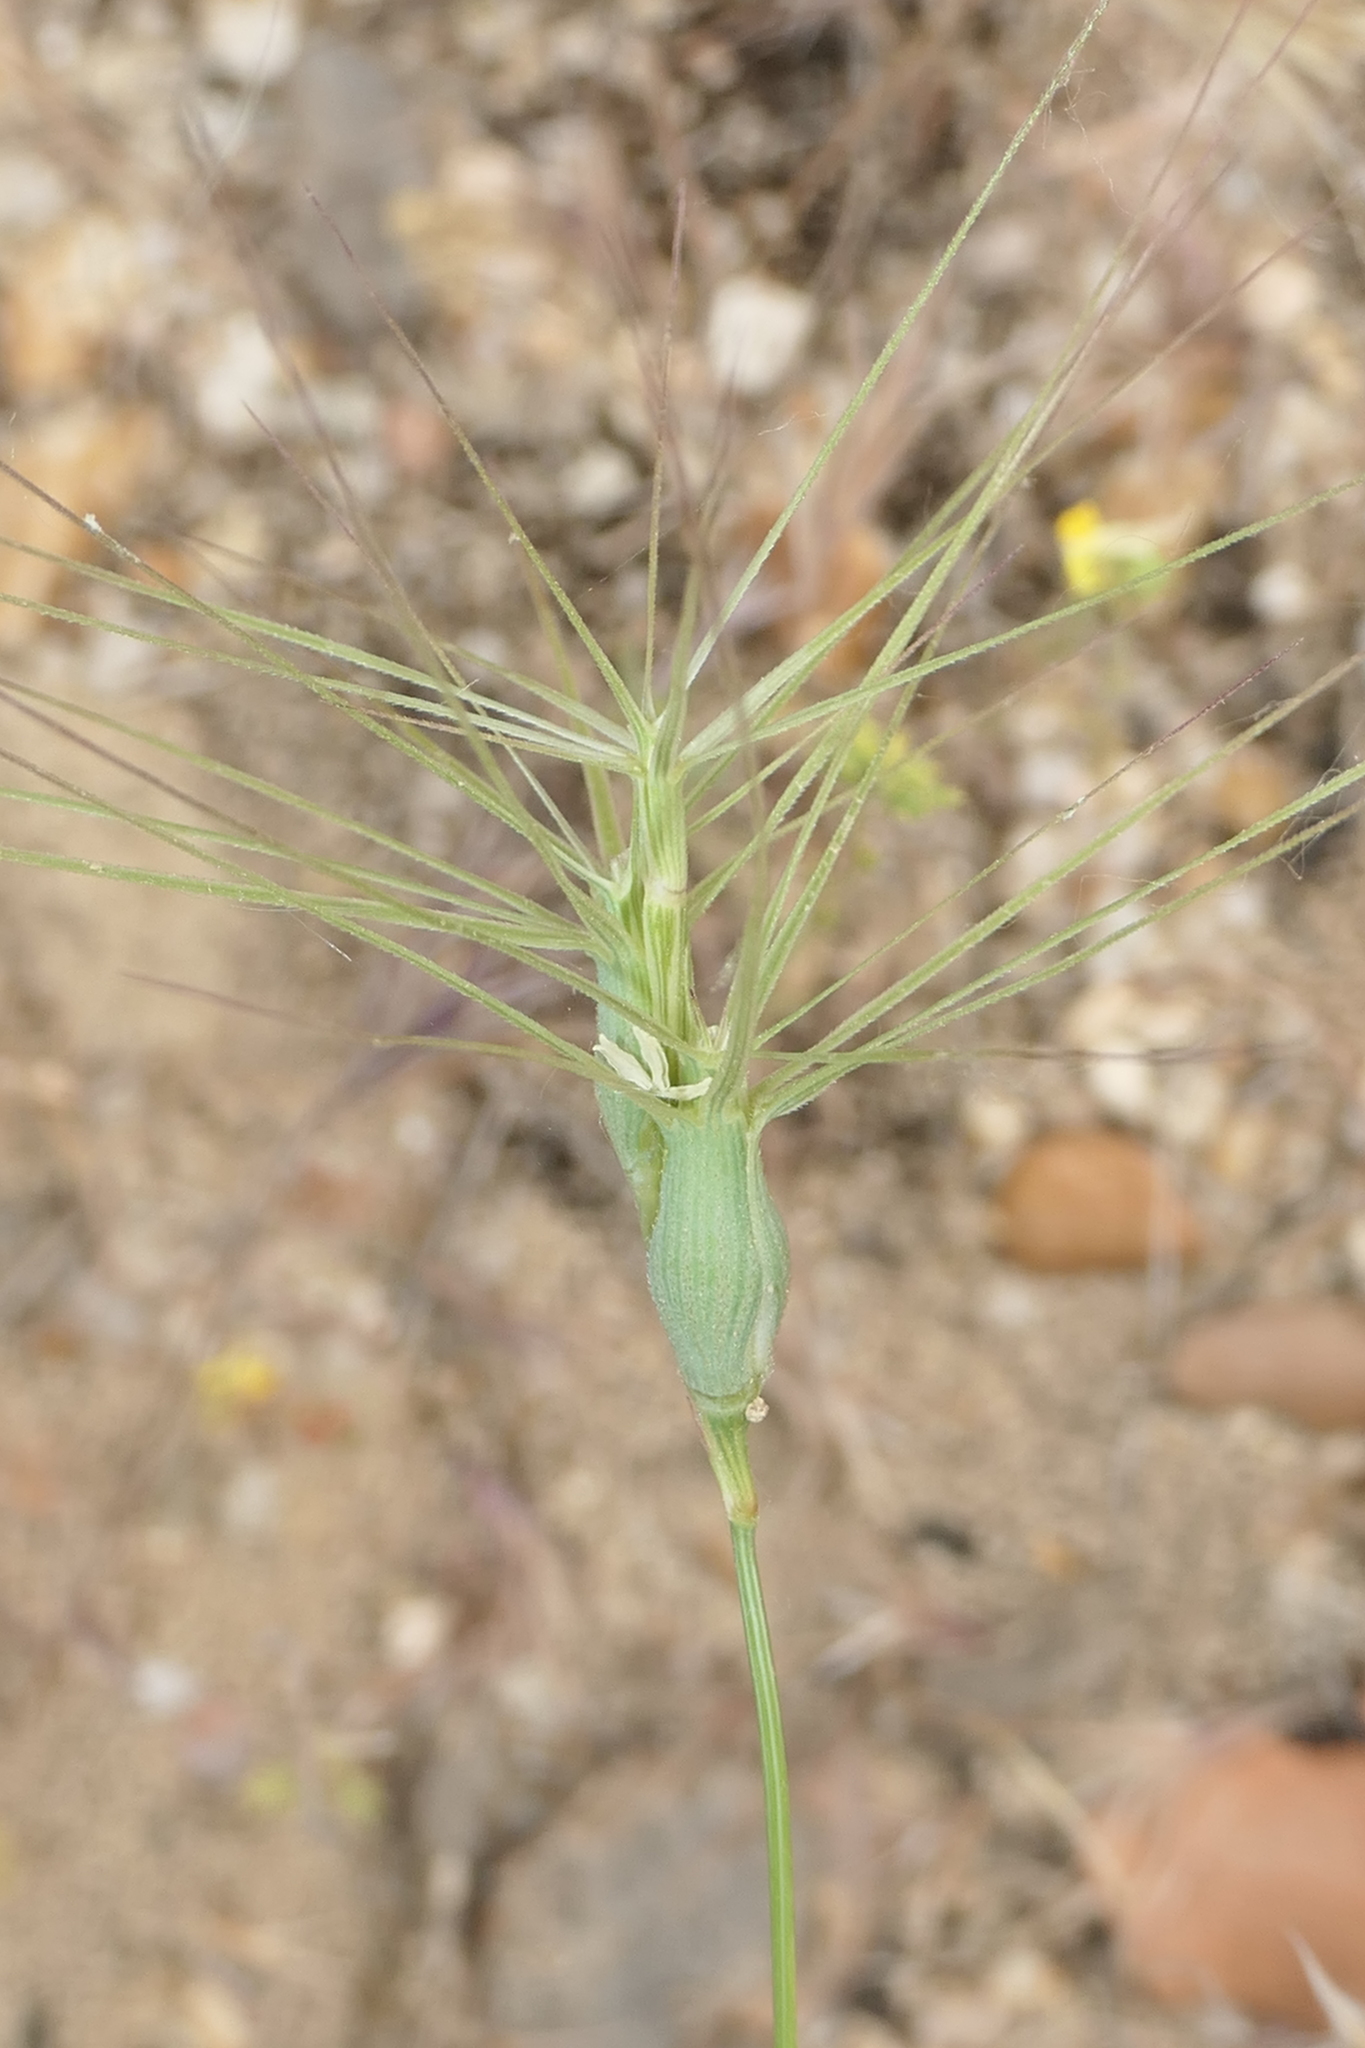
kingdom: Plantae
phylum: Tracheophyta
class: Liliopsida
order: Poales
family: Poaceae
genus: Aegilops
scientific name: Aegilops geniculata
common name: Ovate goat grass
